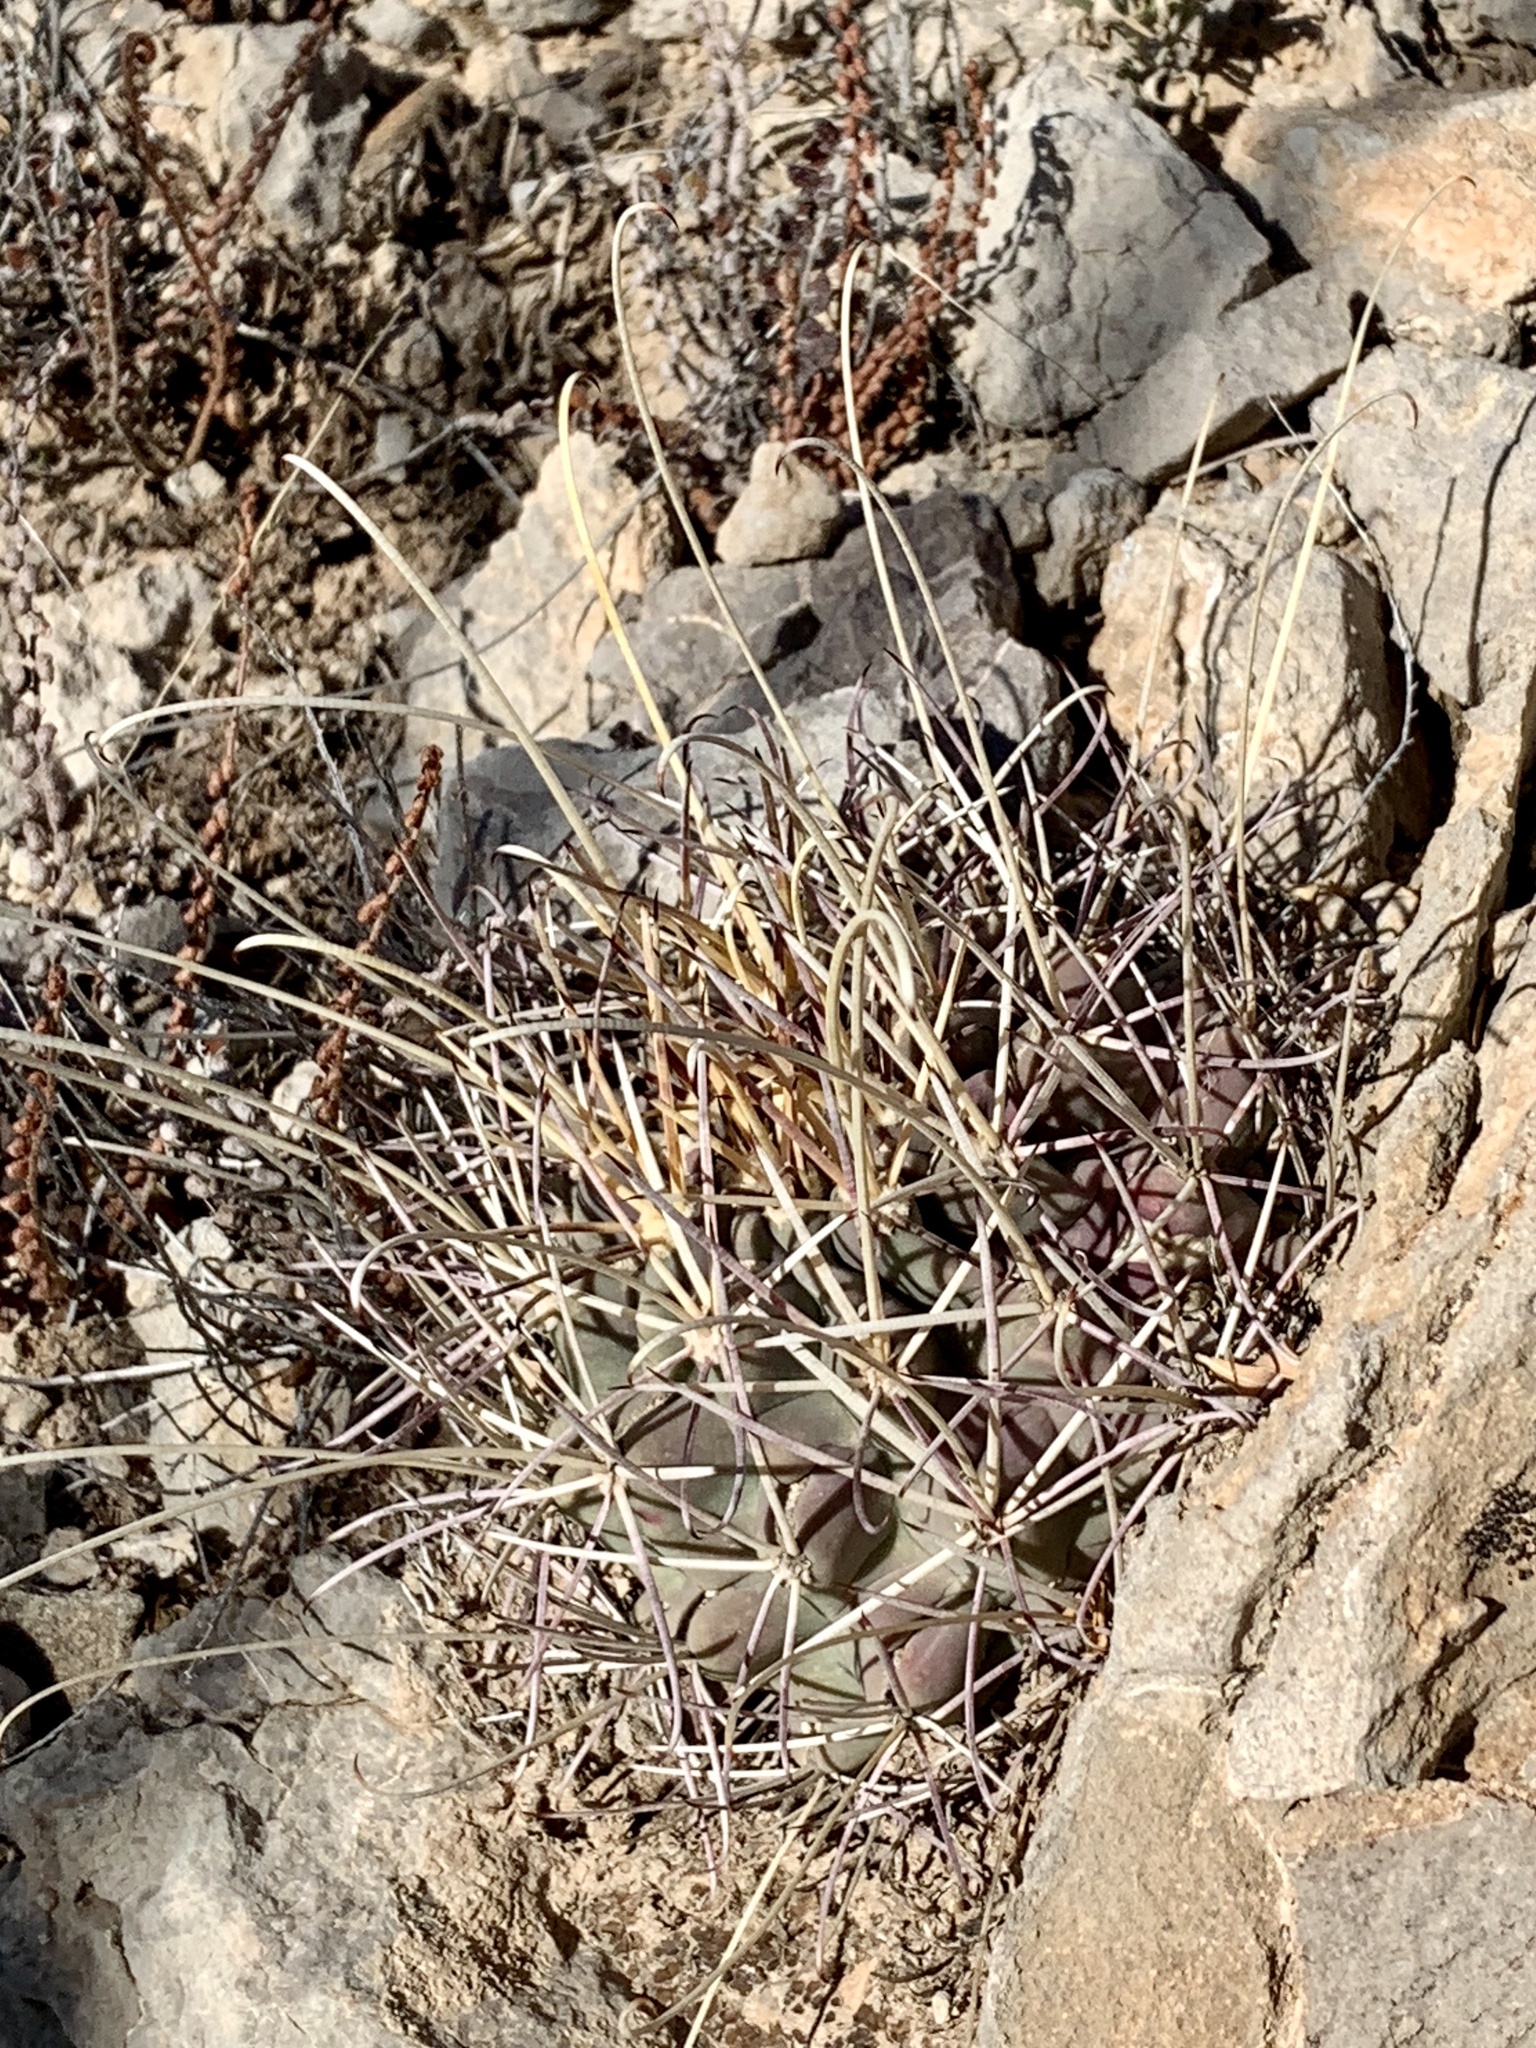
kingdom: Plantae
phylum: Tracheophyta
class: Magnoliopsida
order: Caryophyllales
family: Cactaceae
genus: Ferocactus
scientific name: Ferocactus uncinatus
